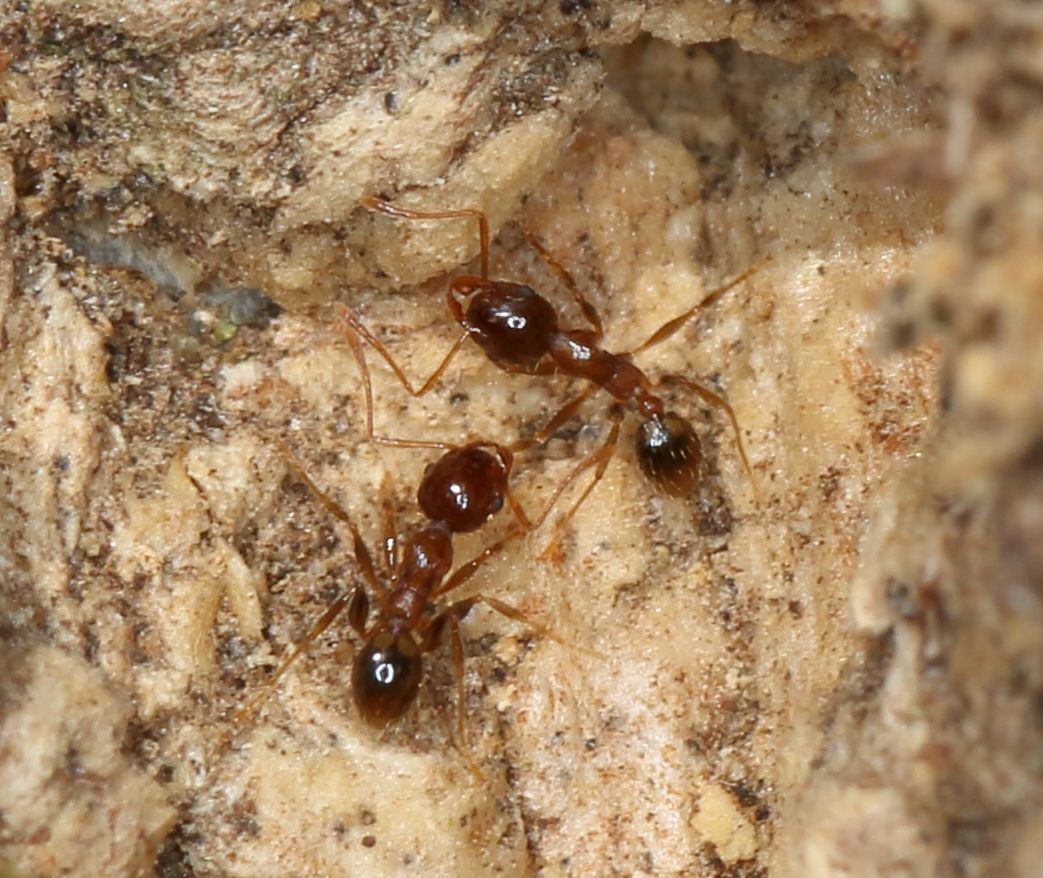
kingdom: Animalia
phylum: Arthropoda
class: Insecta
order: Hymenoptera
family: Formicidae
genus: Pheidole
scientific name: Pheidole megacephala
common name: Bigheaded ant
